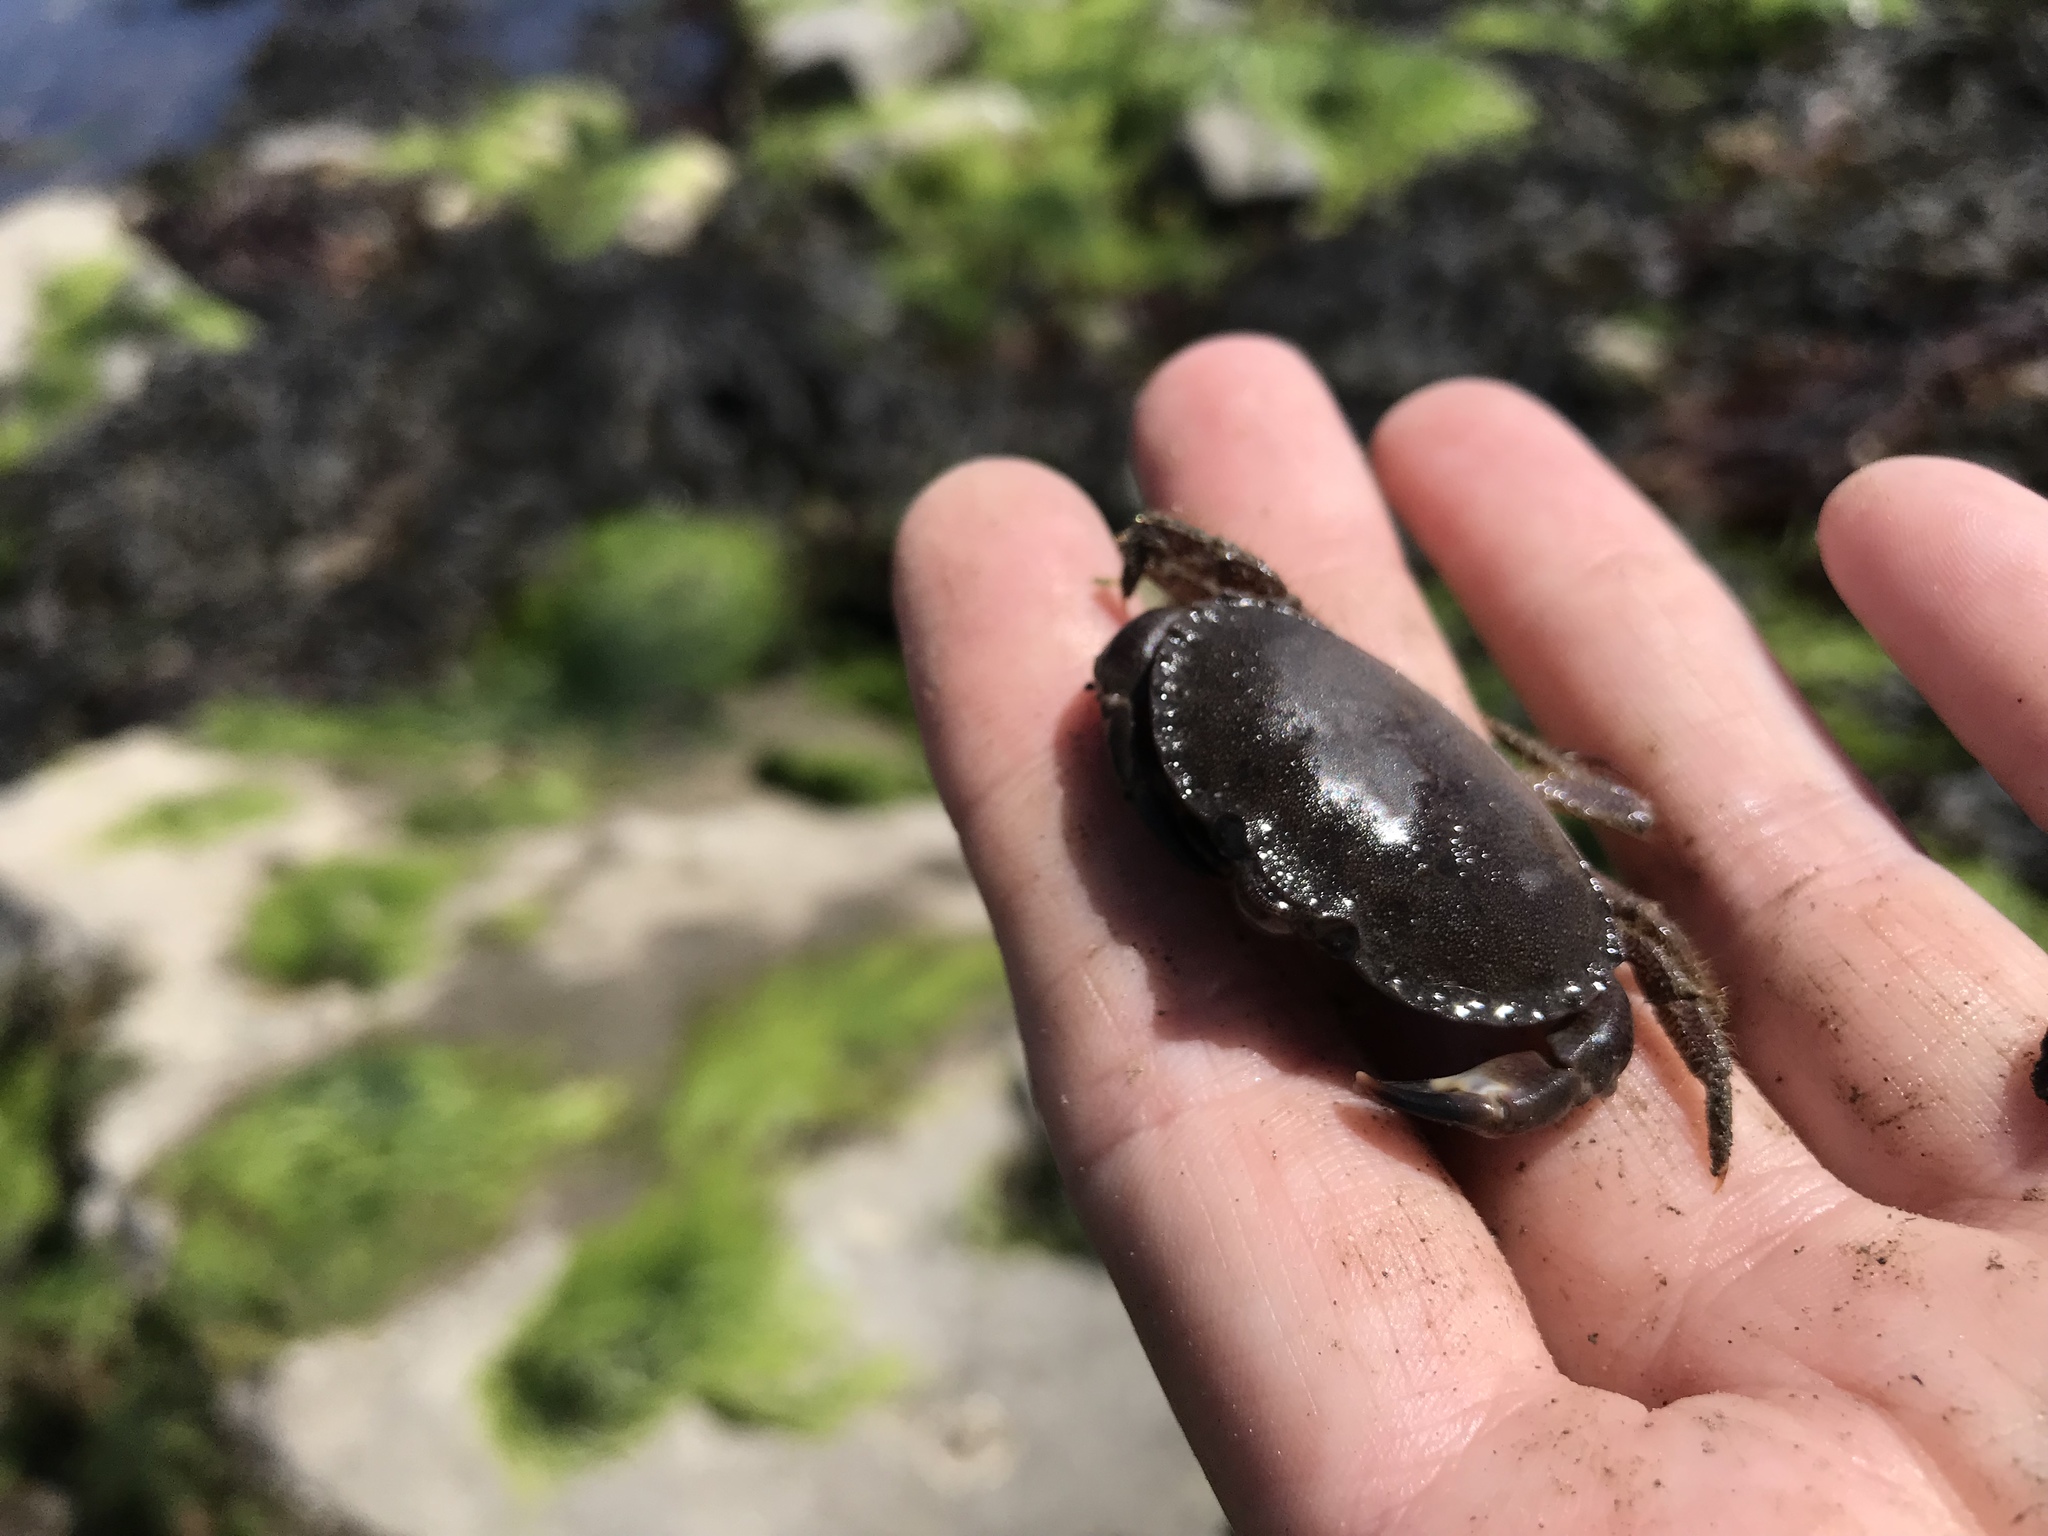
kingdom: Animalia
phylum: Arthropoda
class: Malacostraca
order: Decapoda
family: Cancridae
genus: Cancer
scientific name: Cancer pagurus
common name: Edible crab
